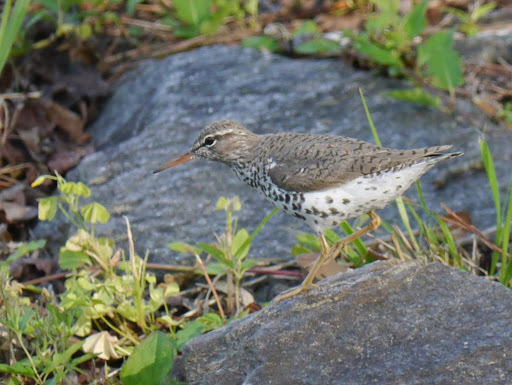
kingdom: Animalia
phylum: Chordata
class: Aves
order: Charadriiformes
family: Scolopacidae
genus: Actitis
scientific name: Actitis macularius
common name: Spotted sandpiper
